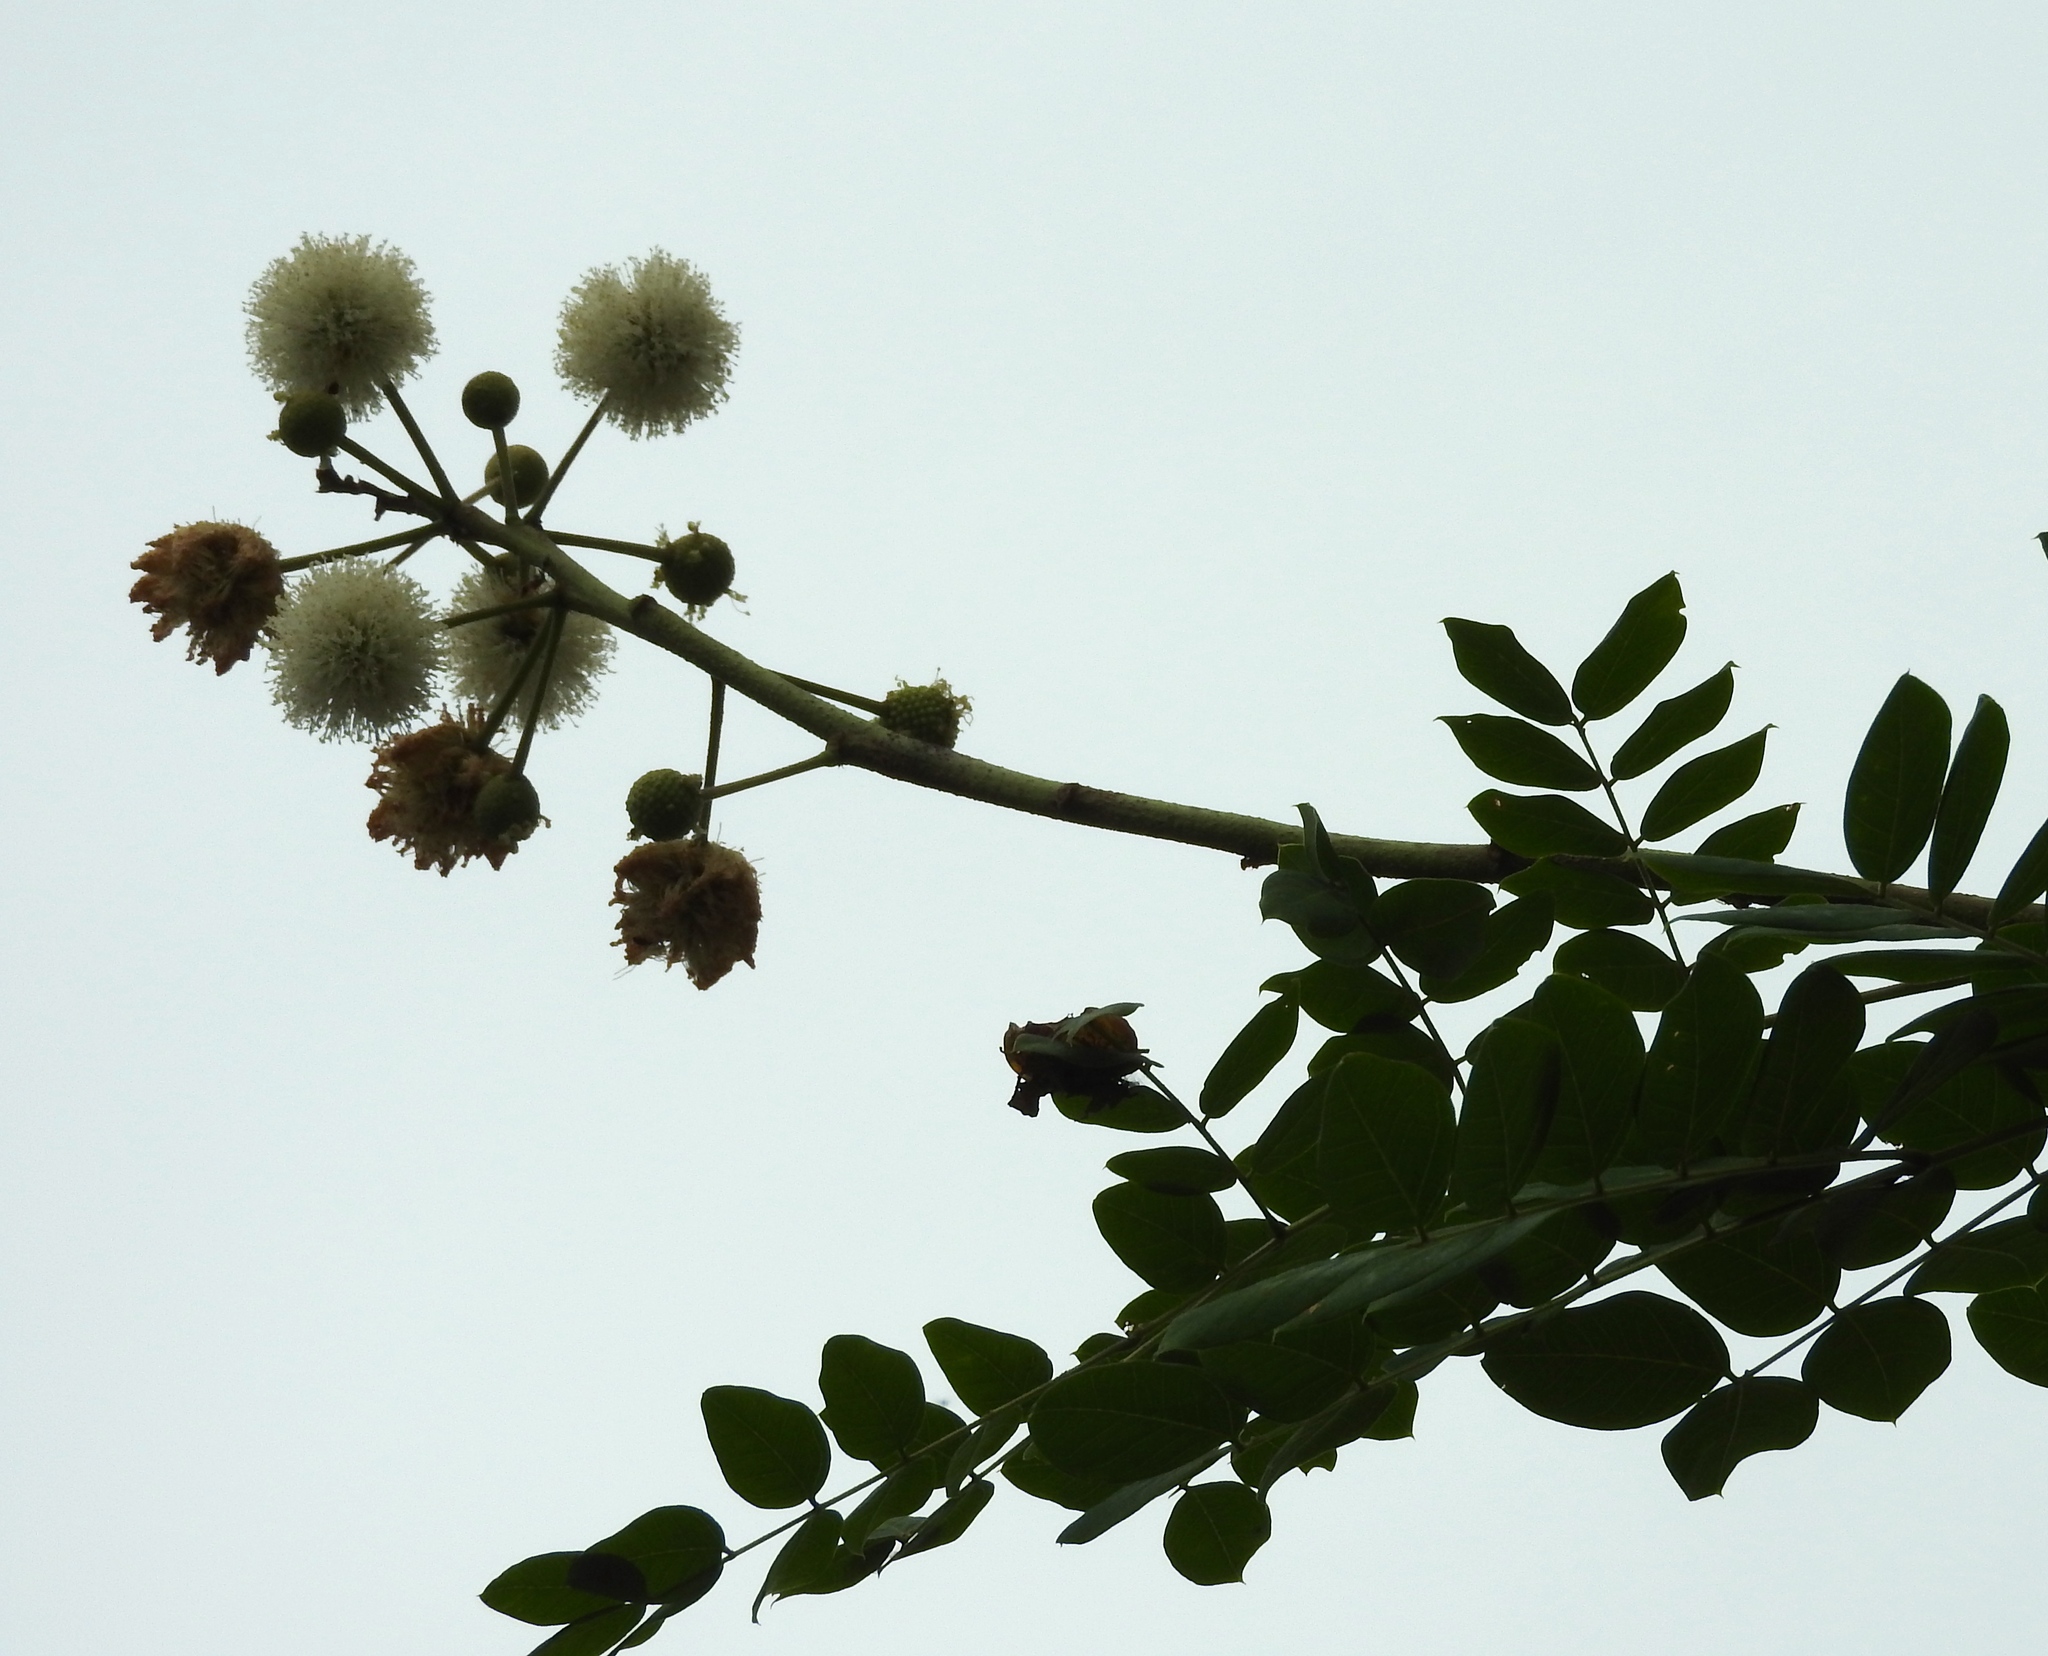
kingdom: Plantae
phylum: Tracheophyta
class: Magnoliopsida
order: Fabales
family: Fabaceae
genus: Leucaena
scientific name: Leucaena lanceolata
